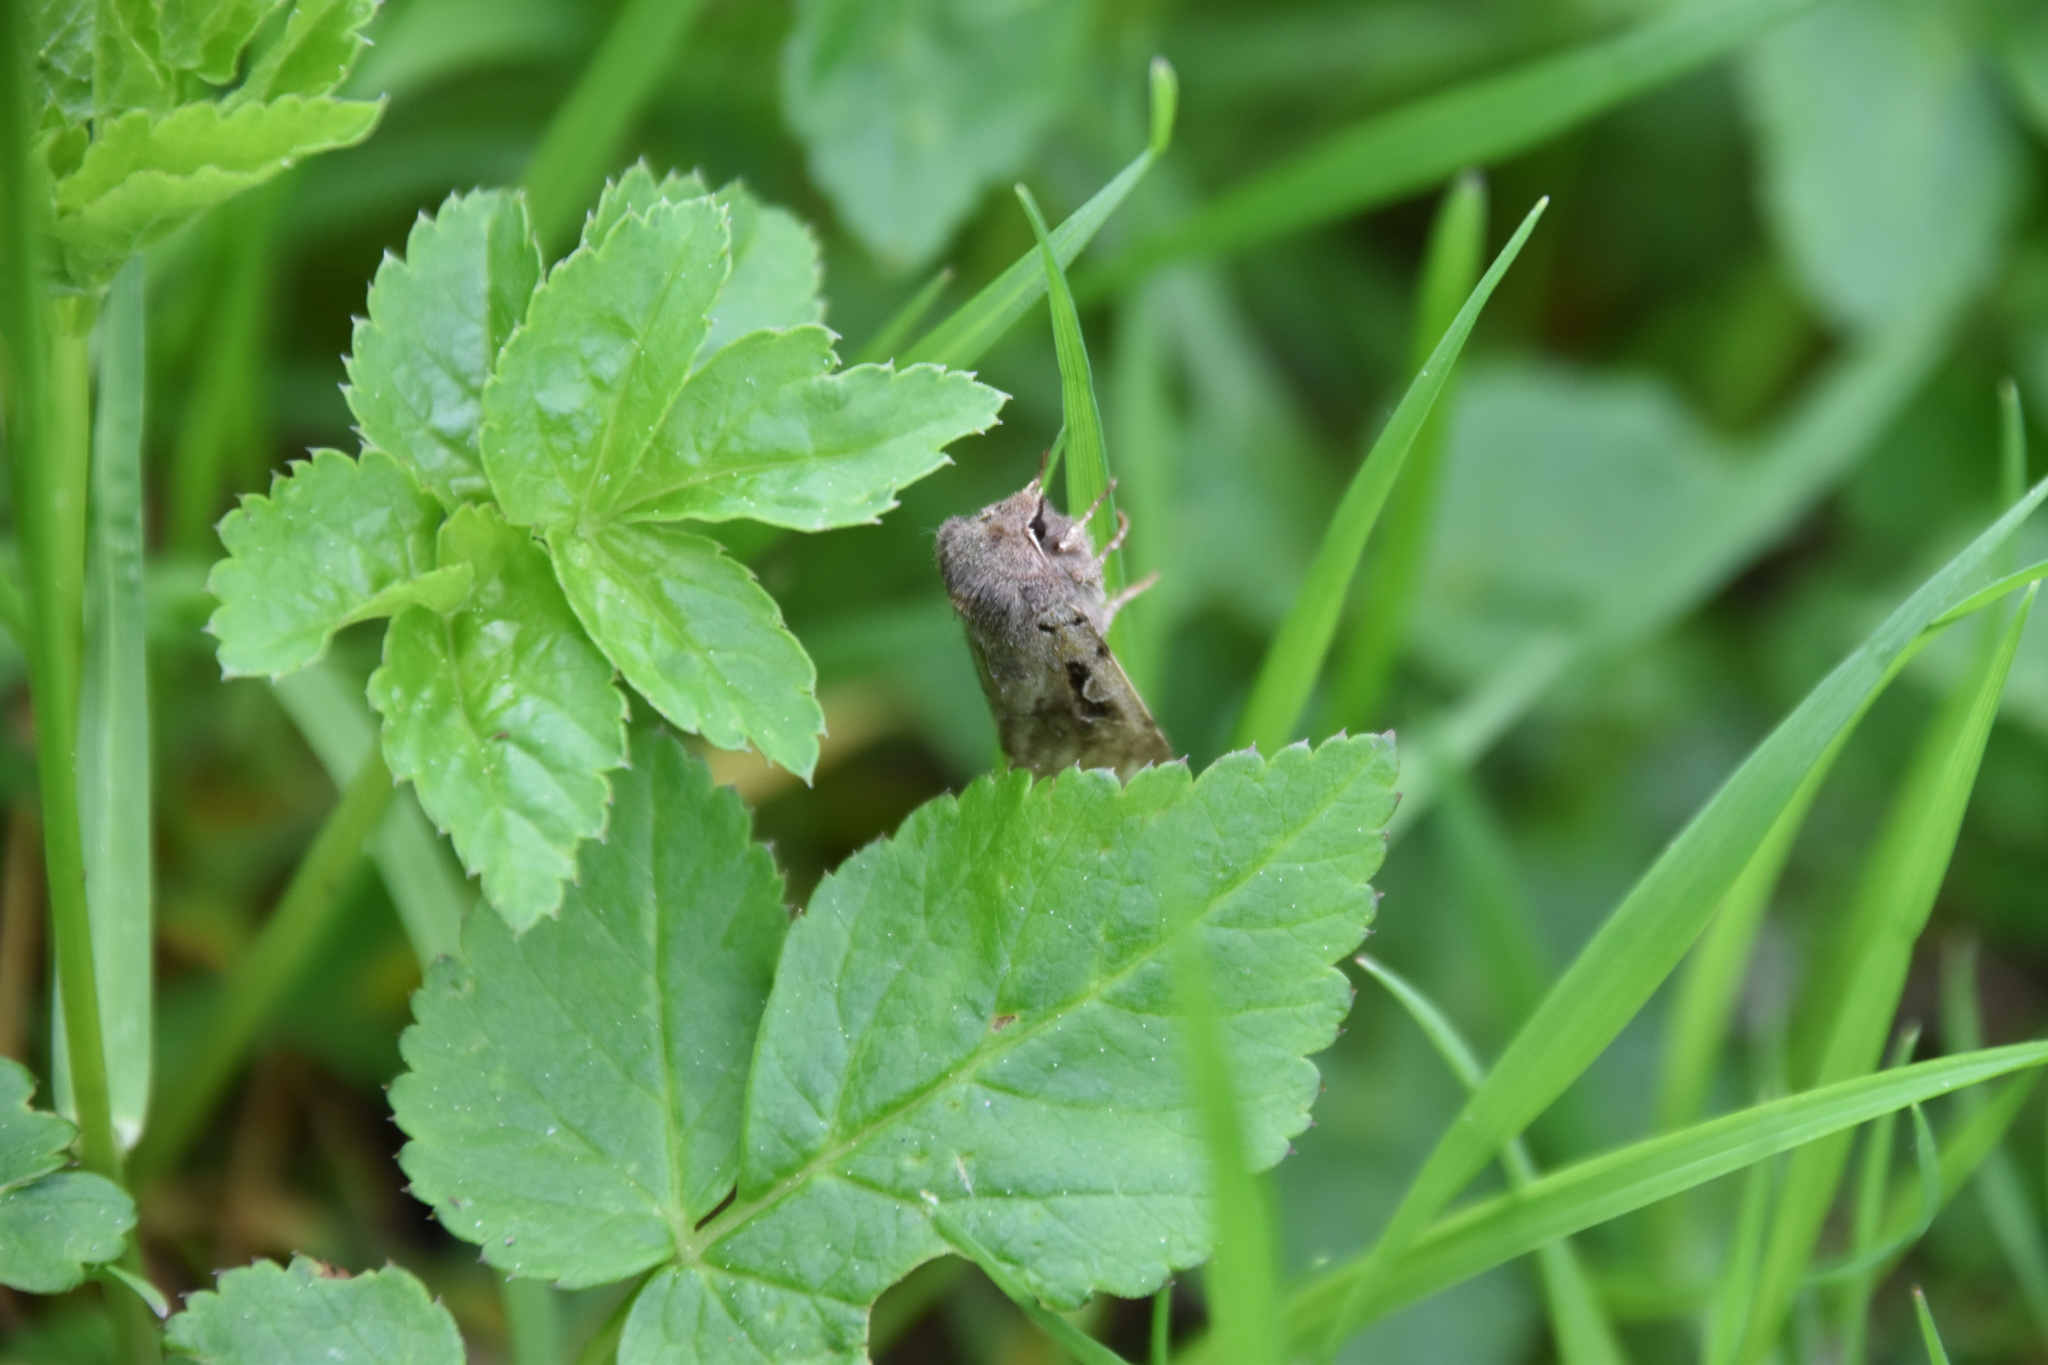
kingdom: Animalia
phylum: Arthropoda
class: Insecta
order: Lepidoptera
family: Noctuidae
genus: Orthosia
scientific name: Orthosia gothica
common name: Hebrew character
